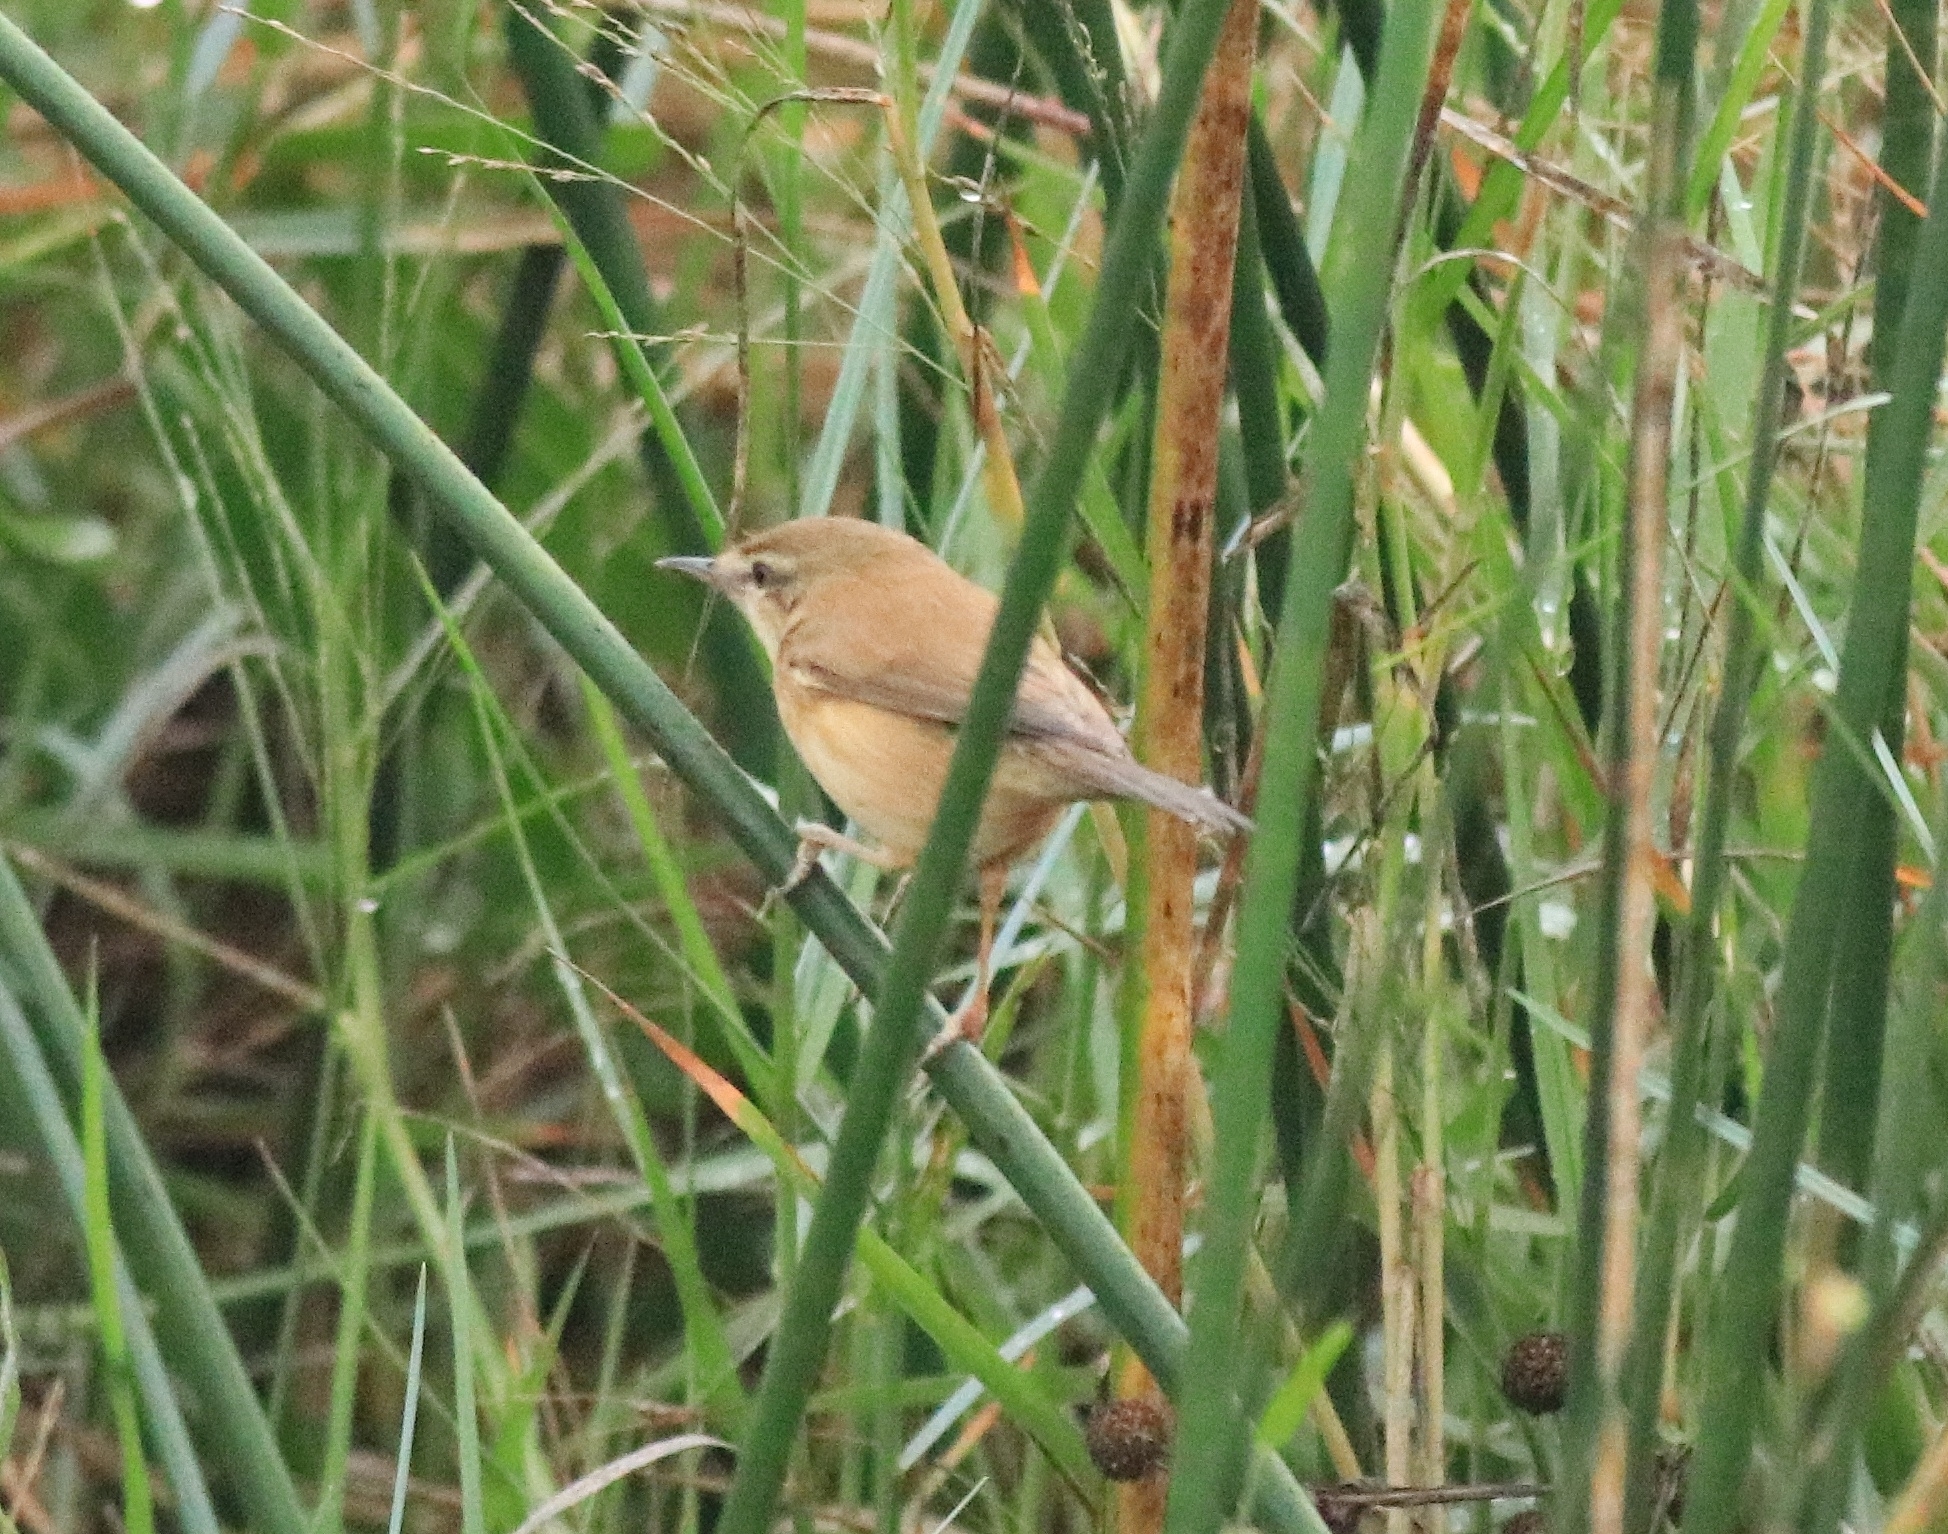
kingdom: Animalia
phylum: Chordata
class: Aves
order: Passeriformes
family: Acrocephalidae
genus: Acrocephalus
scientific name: Acrocephalus agricola
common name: Paddyfield warbler
